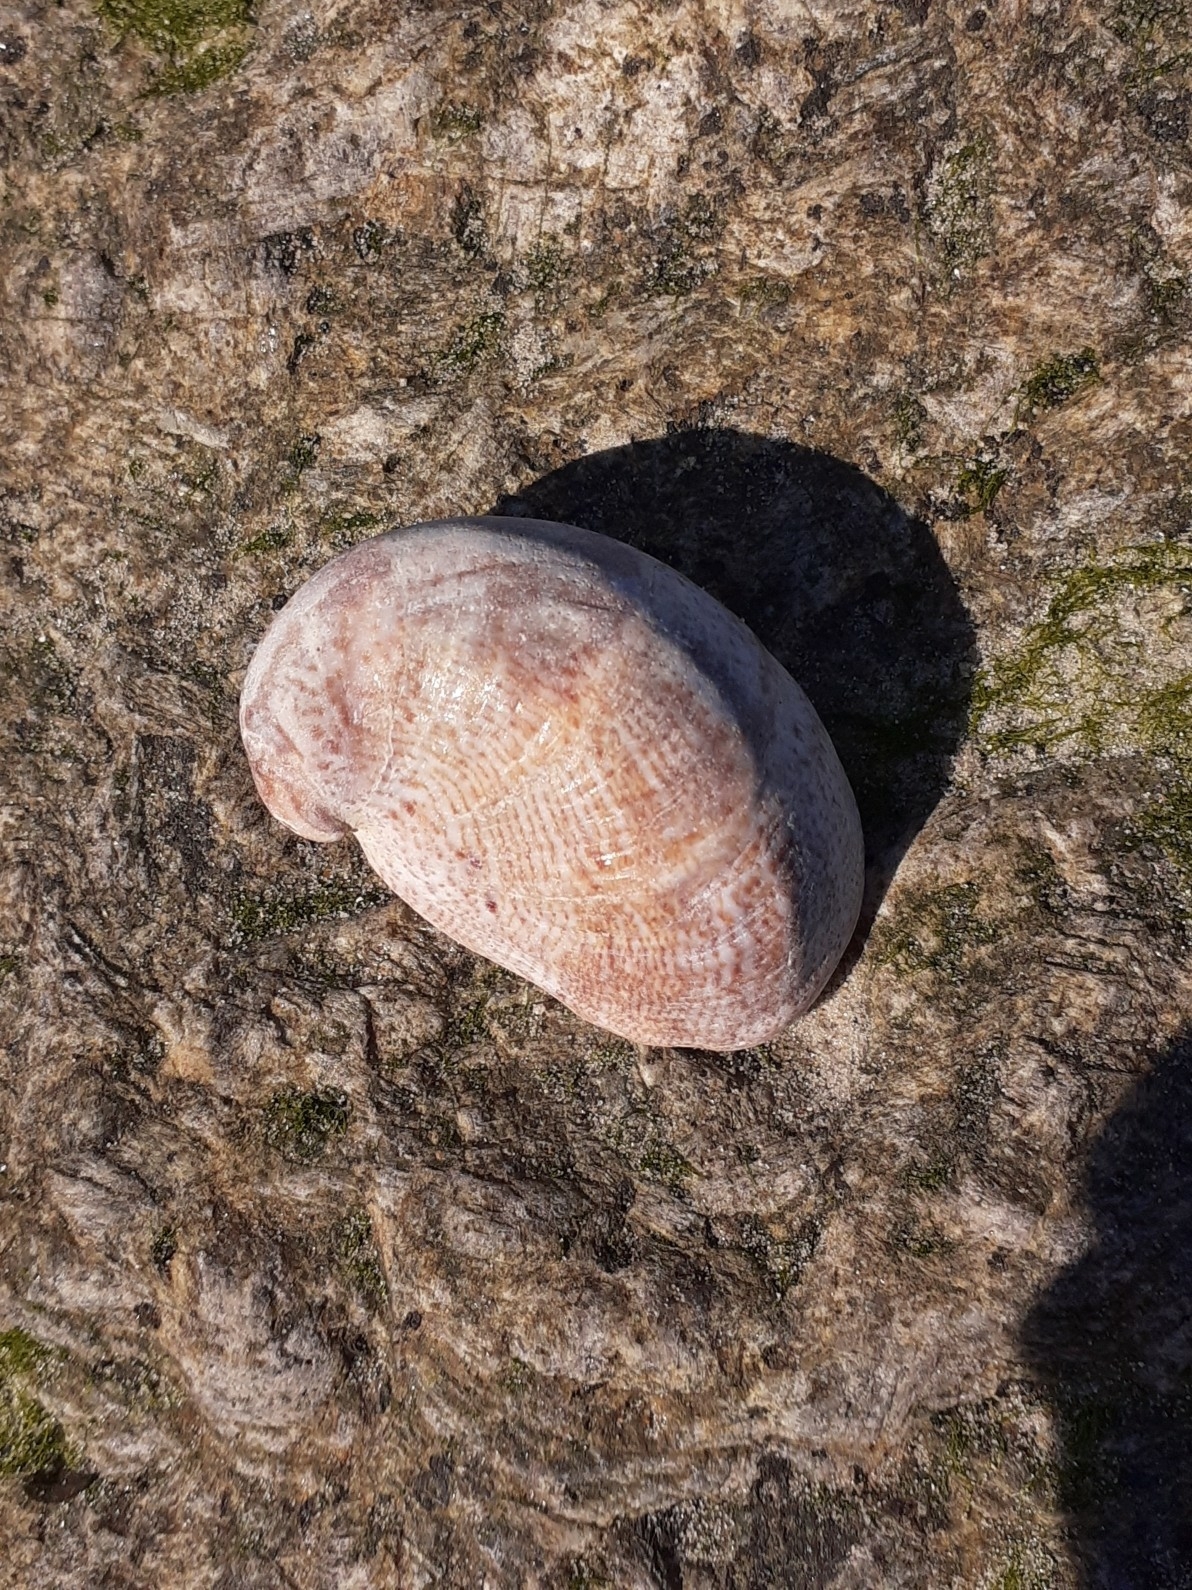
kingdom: Animalia
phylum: Mollusca
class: Gastropoda
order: Littorinimorpha
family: Calyptraeidae
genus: Crepidula
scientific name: Crepidula fornicata
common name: Slipper limpet
